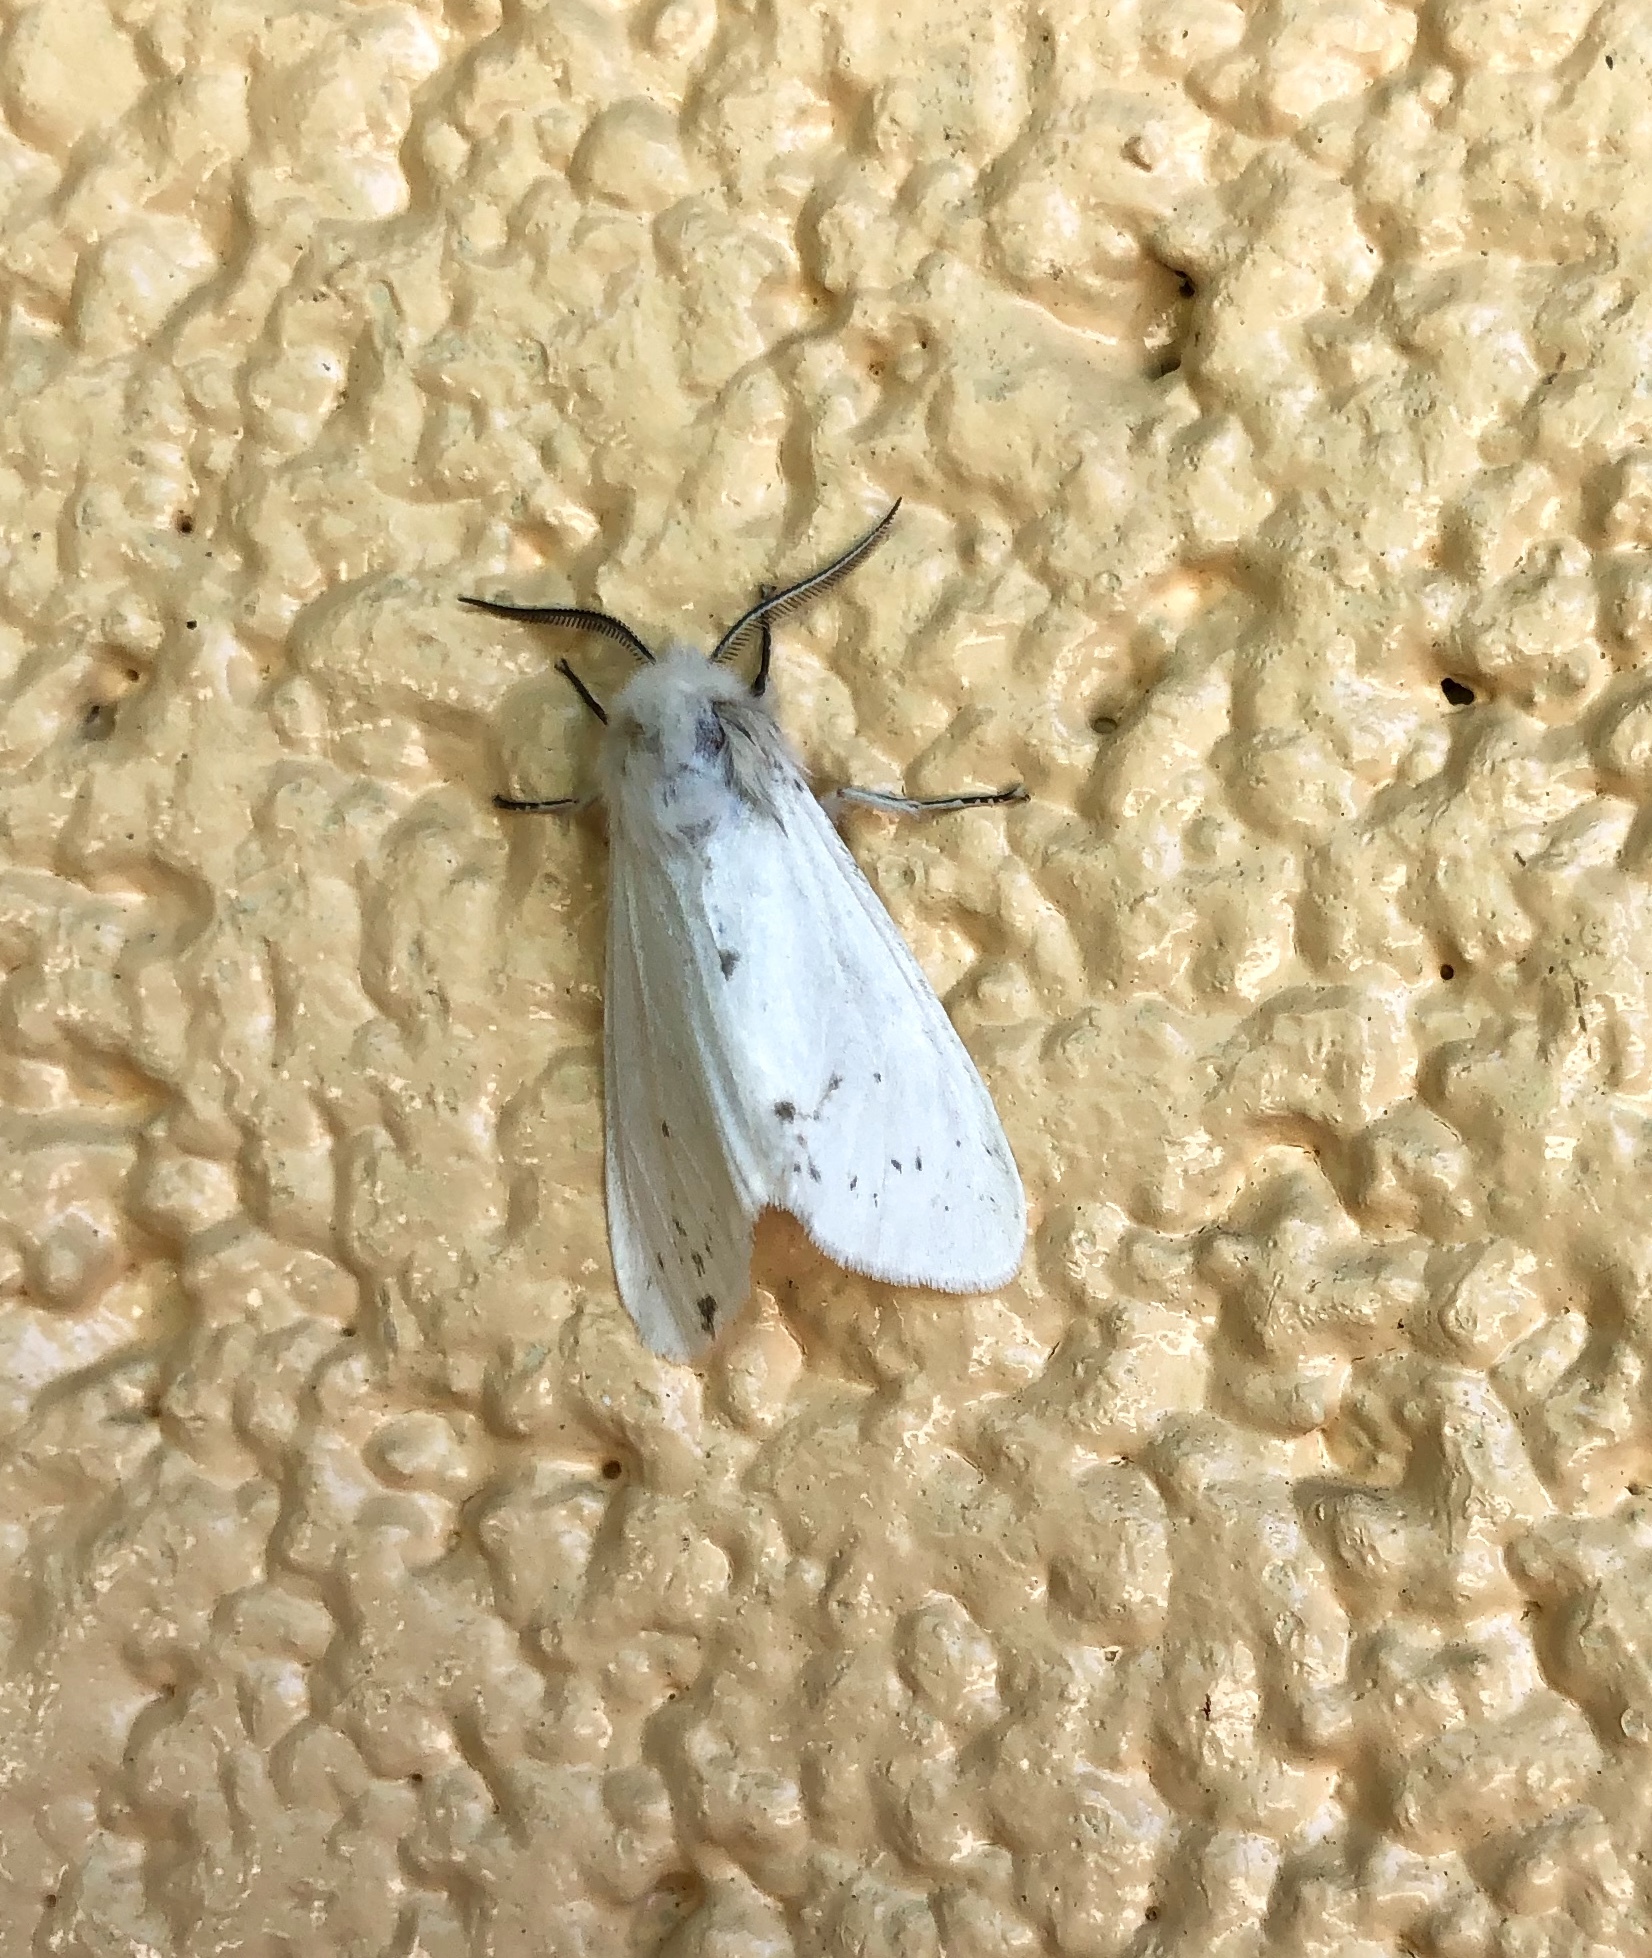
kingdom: Animalia
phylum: Arthropoda
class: Insecta
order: Lepidoptera
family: Erebidae
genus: Hyphantria
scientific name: Hyphantria cunea
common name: American white moth
